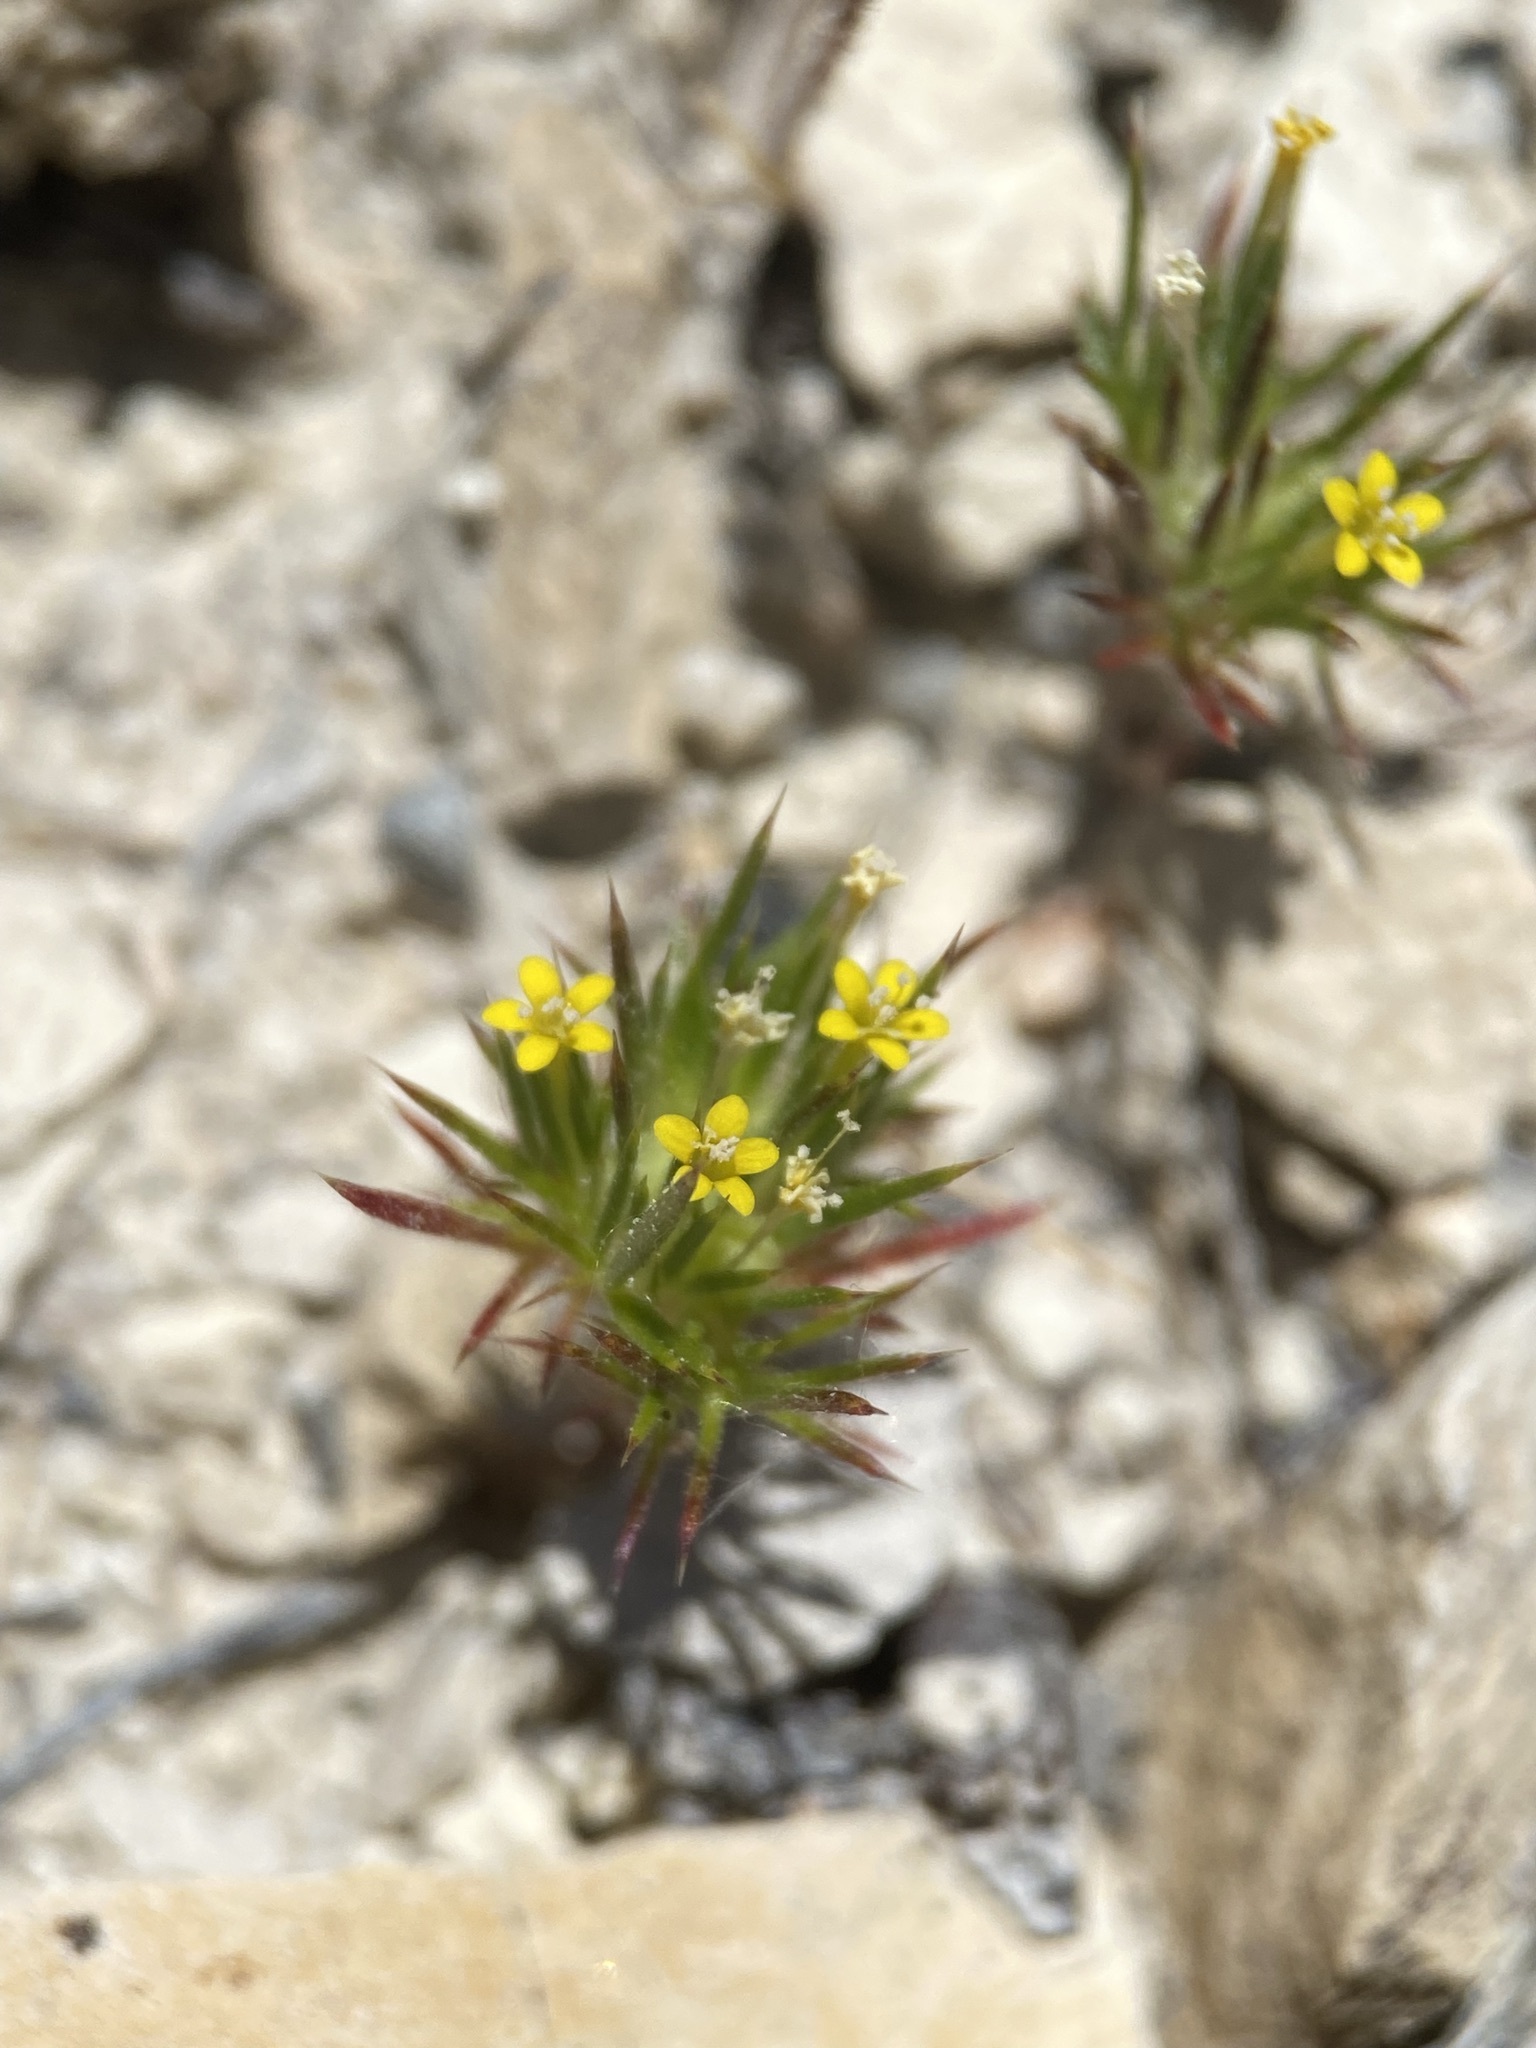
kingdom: Plantae
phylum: Tracheophyta
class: Magnoliopsida
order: Ericales
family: Polemoniaceae
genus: Navarretia
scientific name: Navarretia breweri
